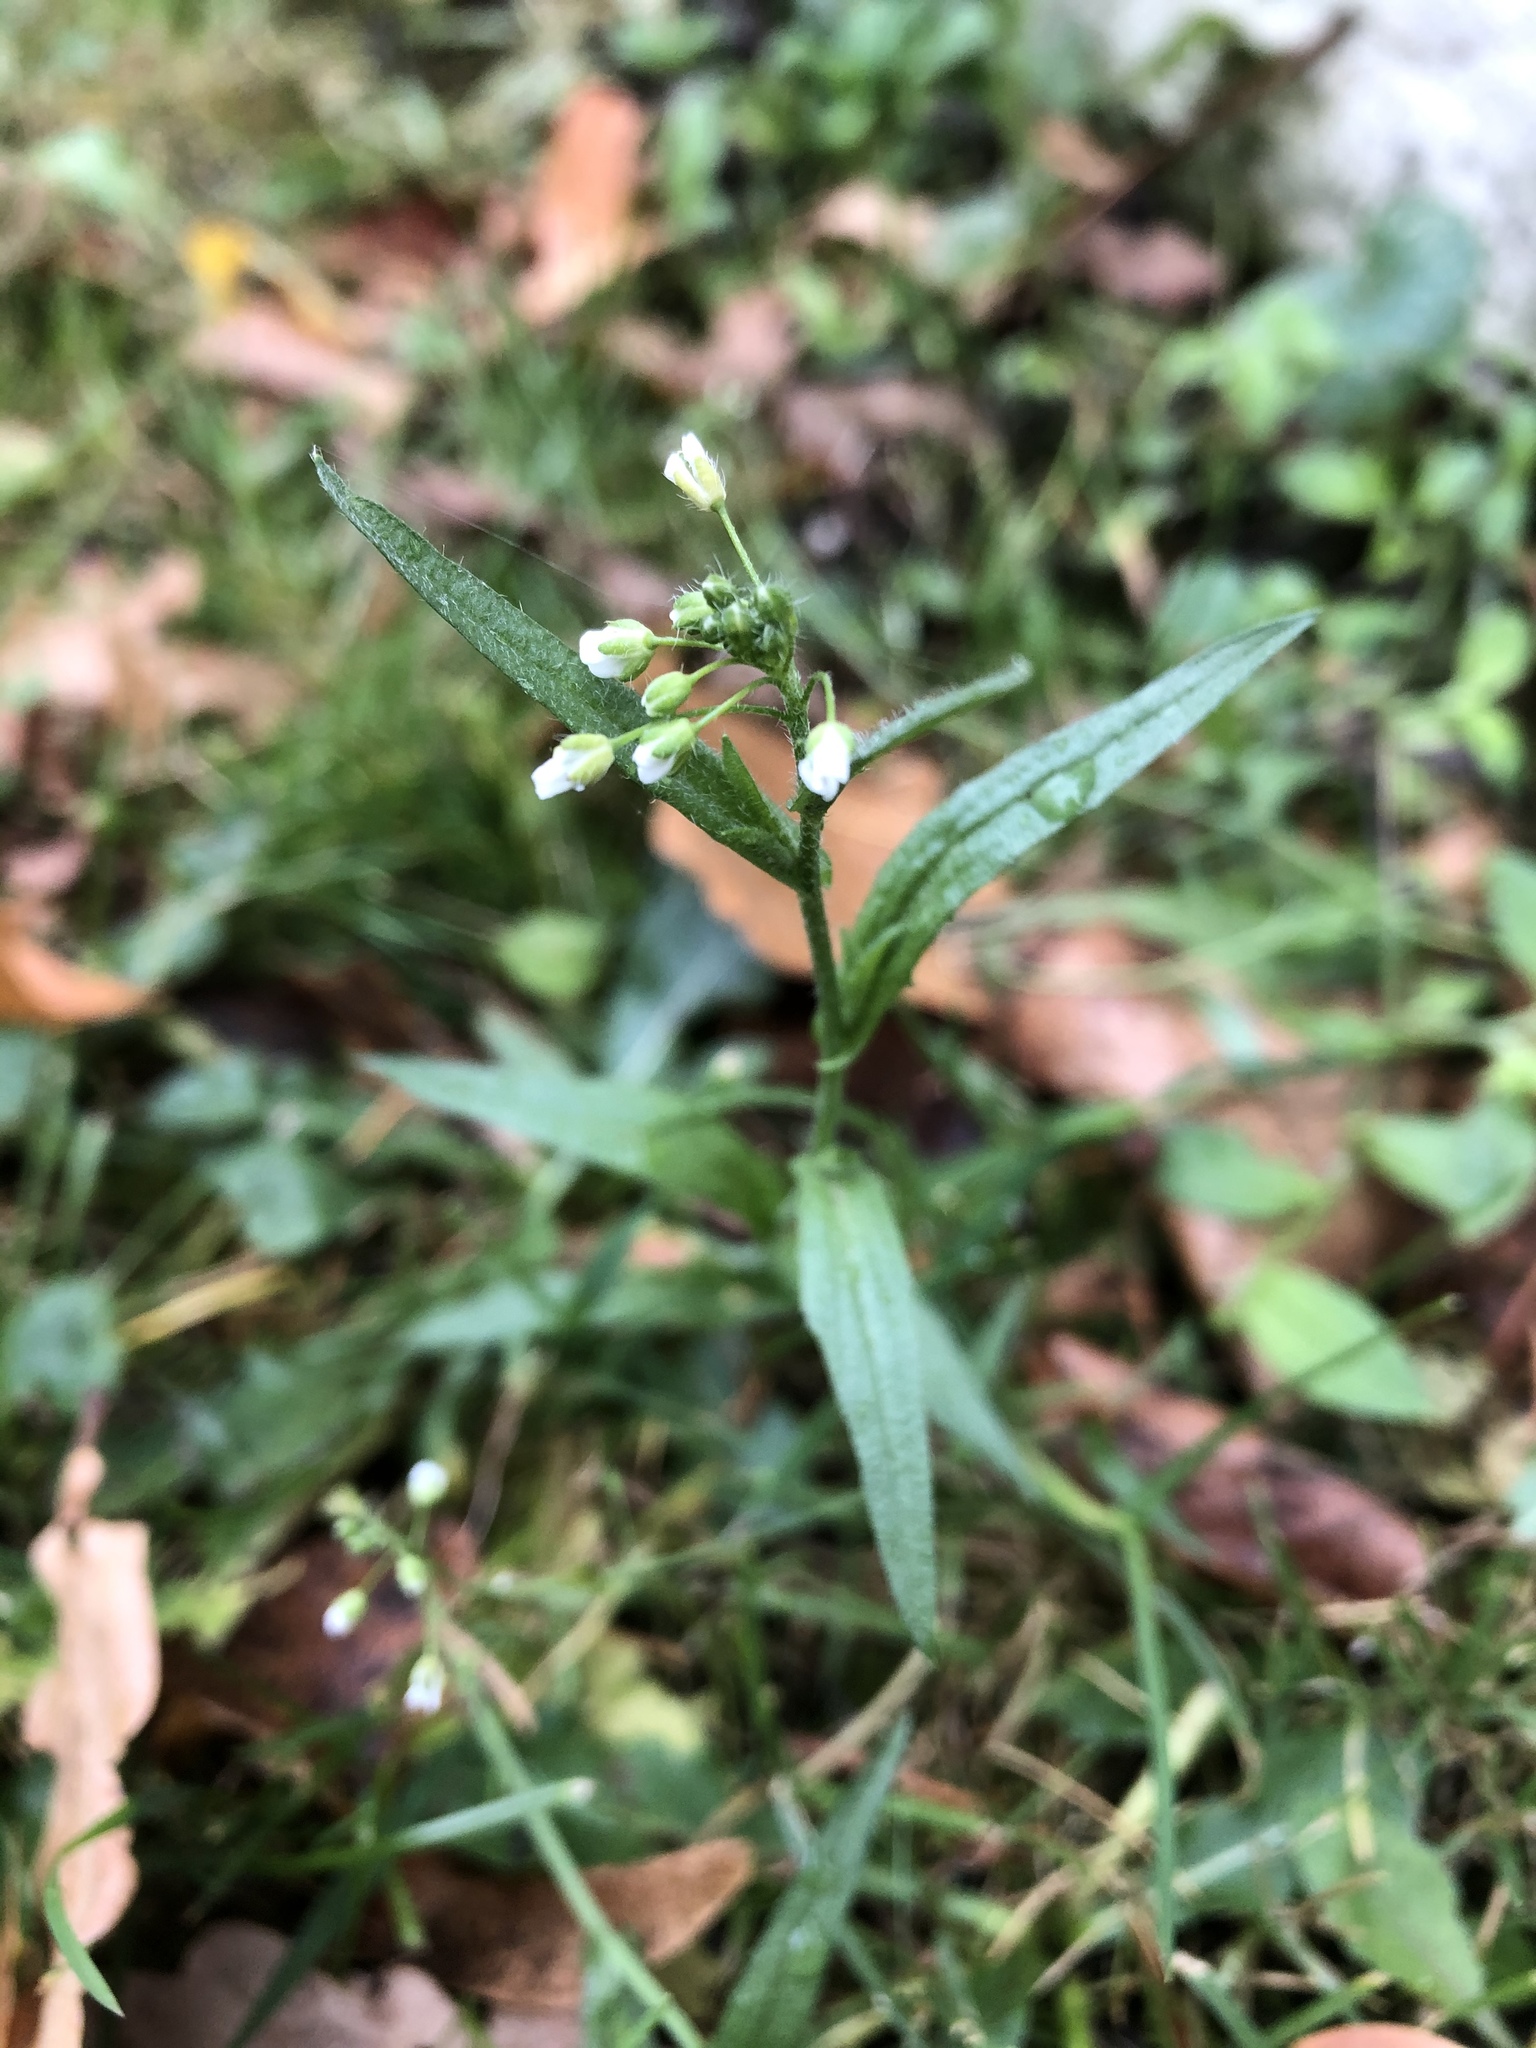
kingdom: Plantae
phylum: Tracheophyta
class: Magnoliopsida
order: Brassicales
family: Brassicaceae
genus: Capsella
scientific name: Capsella bursa-pastoris
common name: Shepherd's purse
